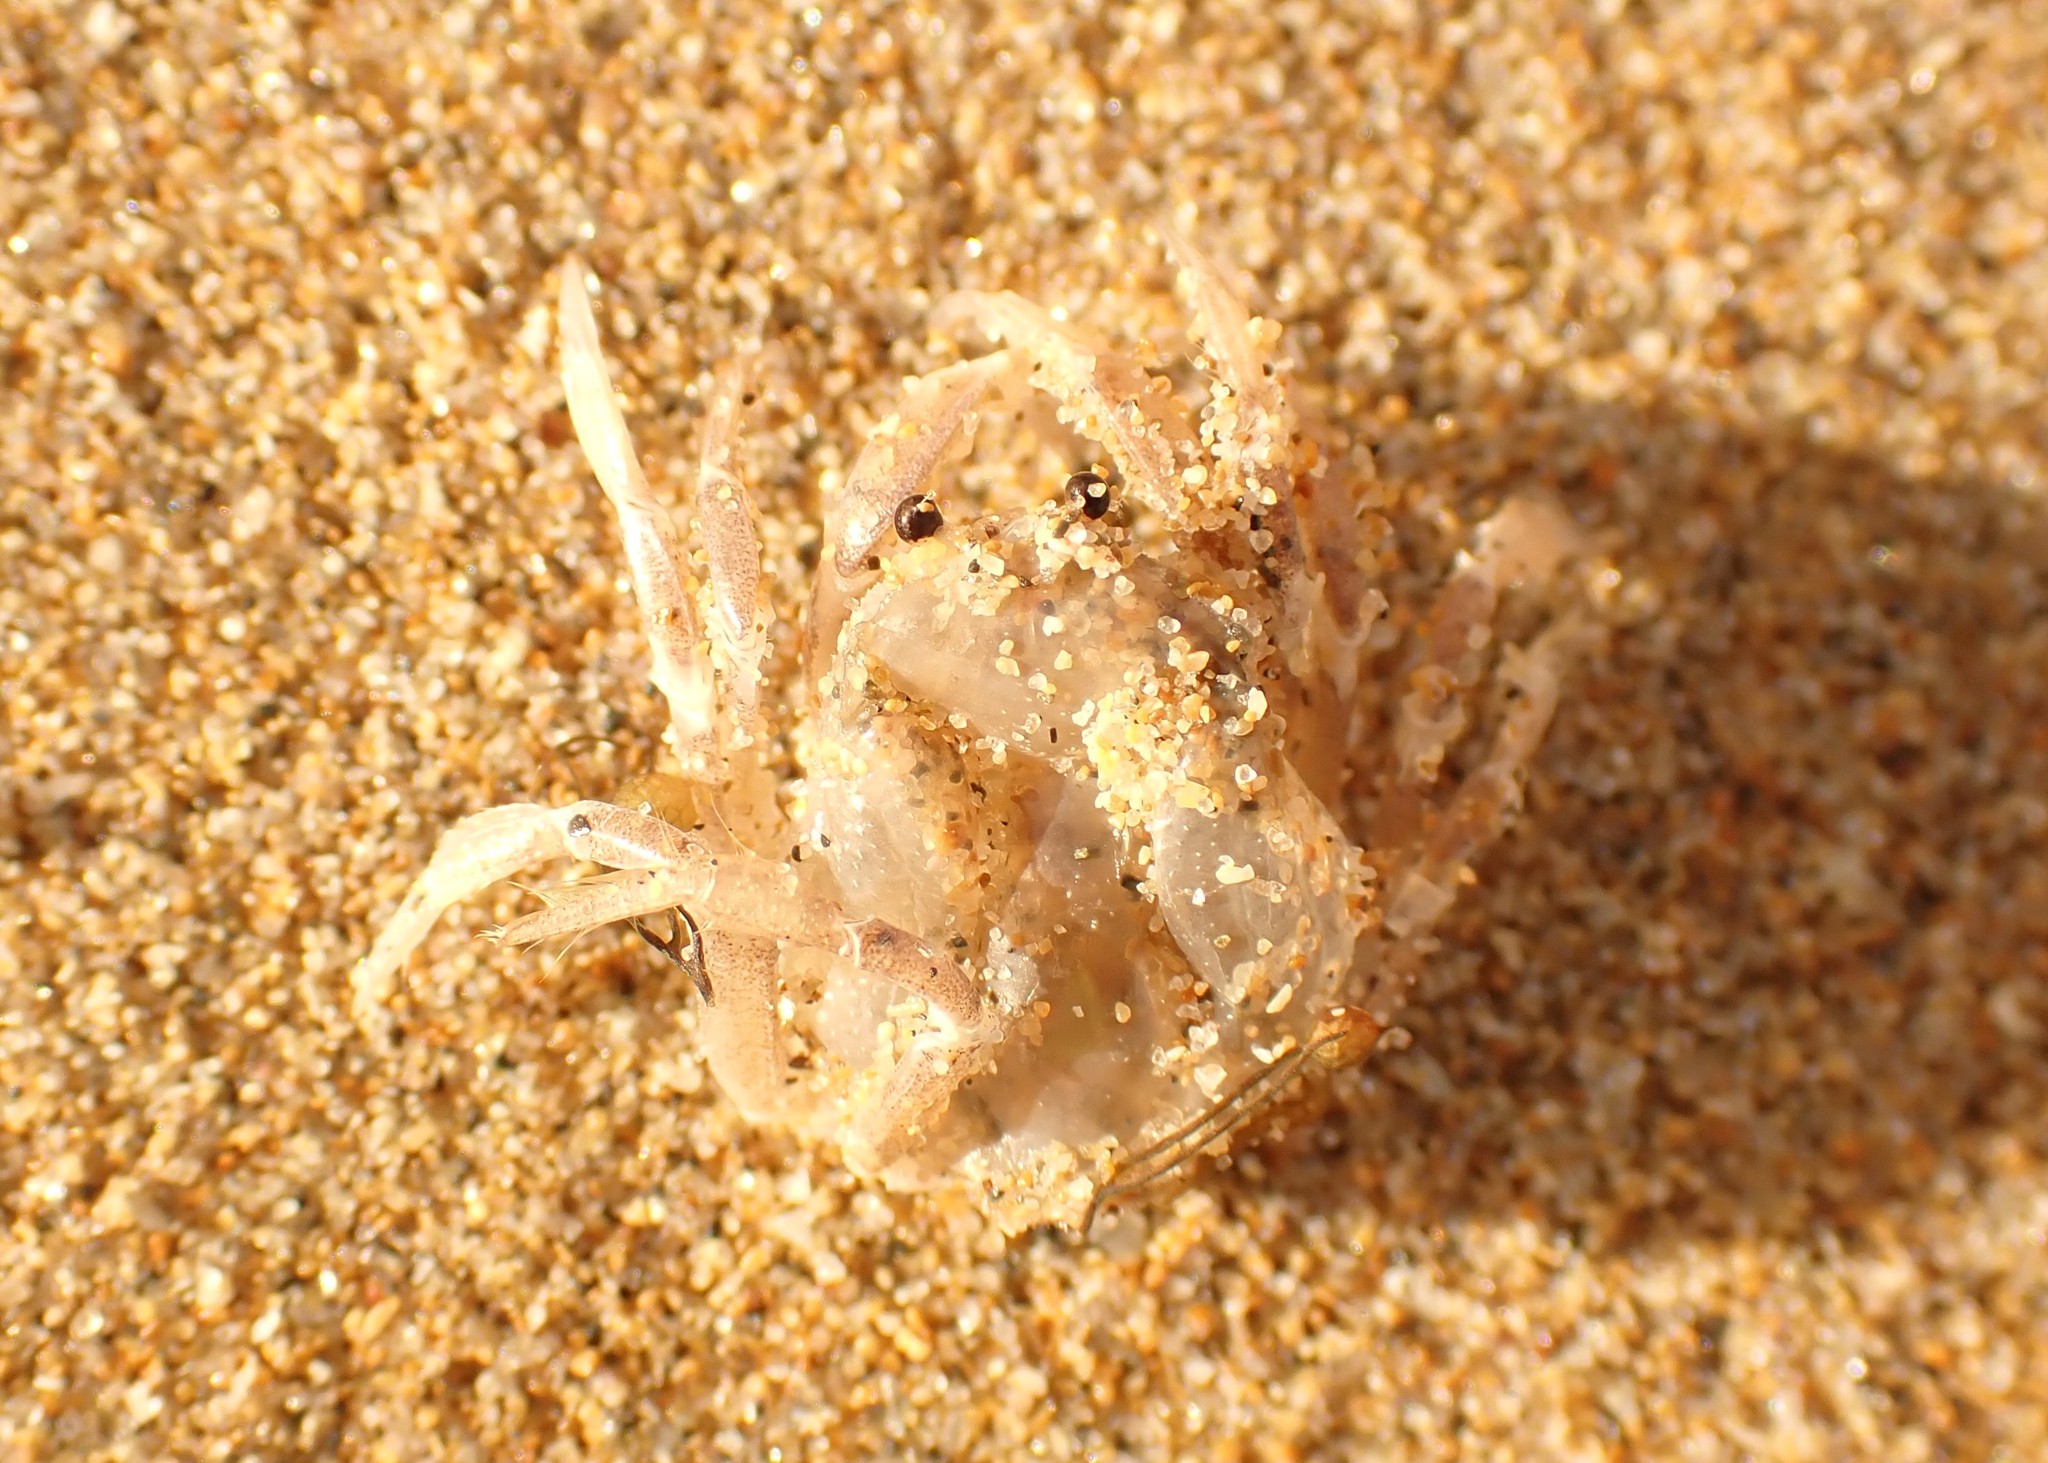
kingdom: Animalia
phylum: Arthropoda
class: Malacostraca
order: Decapoda
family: Mictyridae
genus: Mictyris
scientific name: Mictyris platycheles
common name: Dark blue soldier crab
